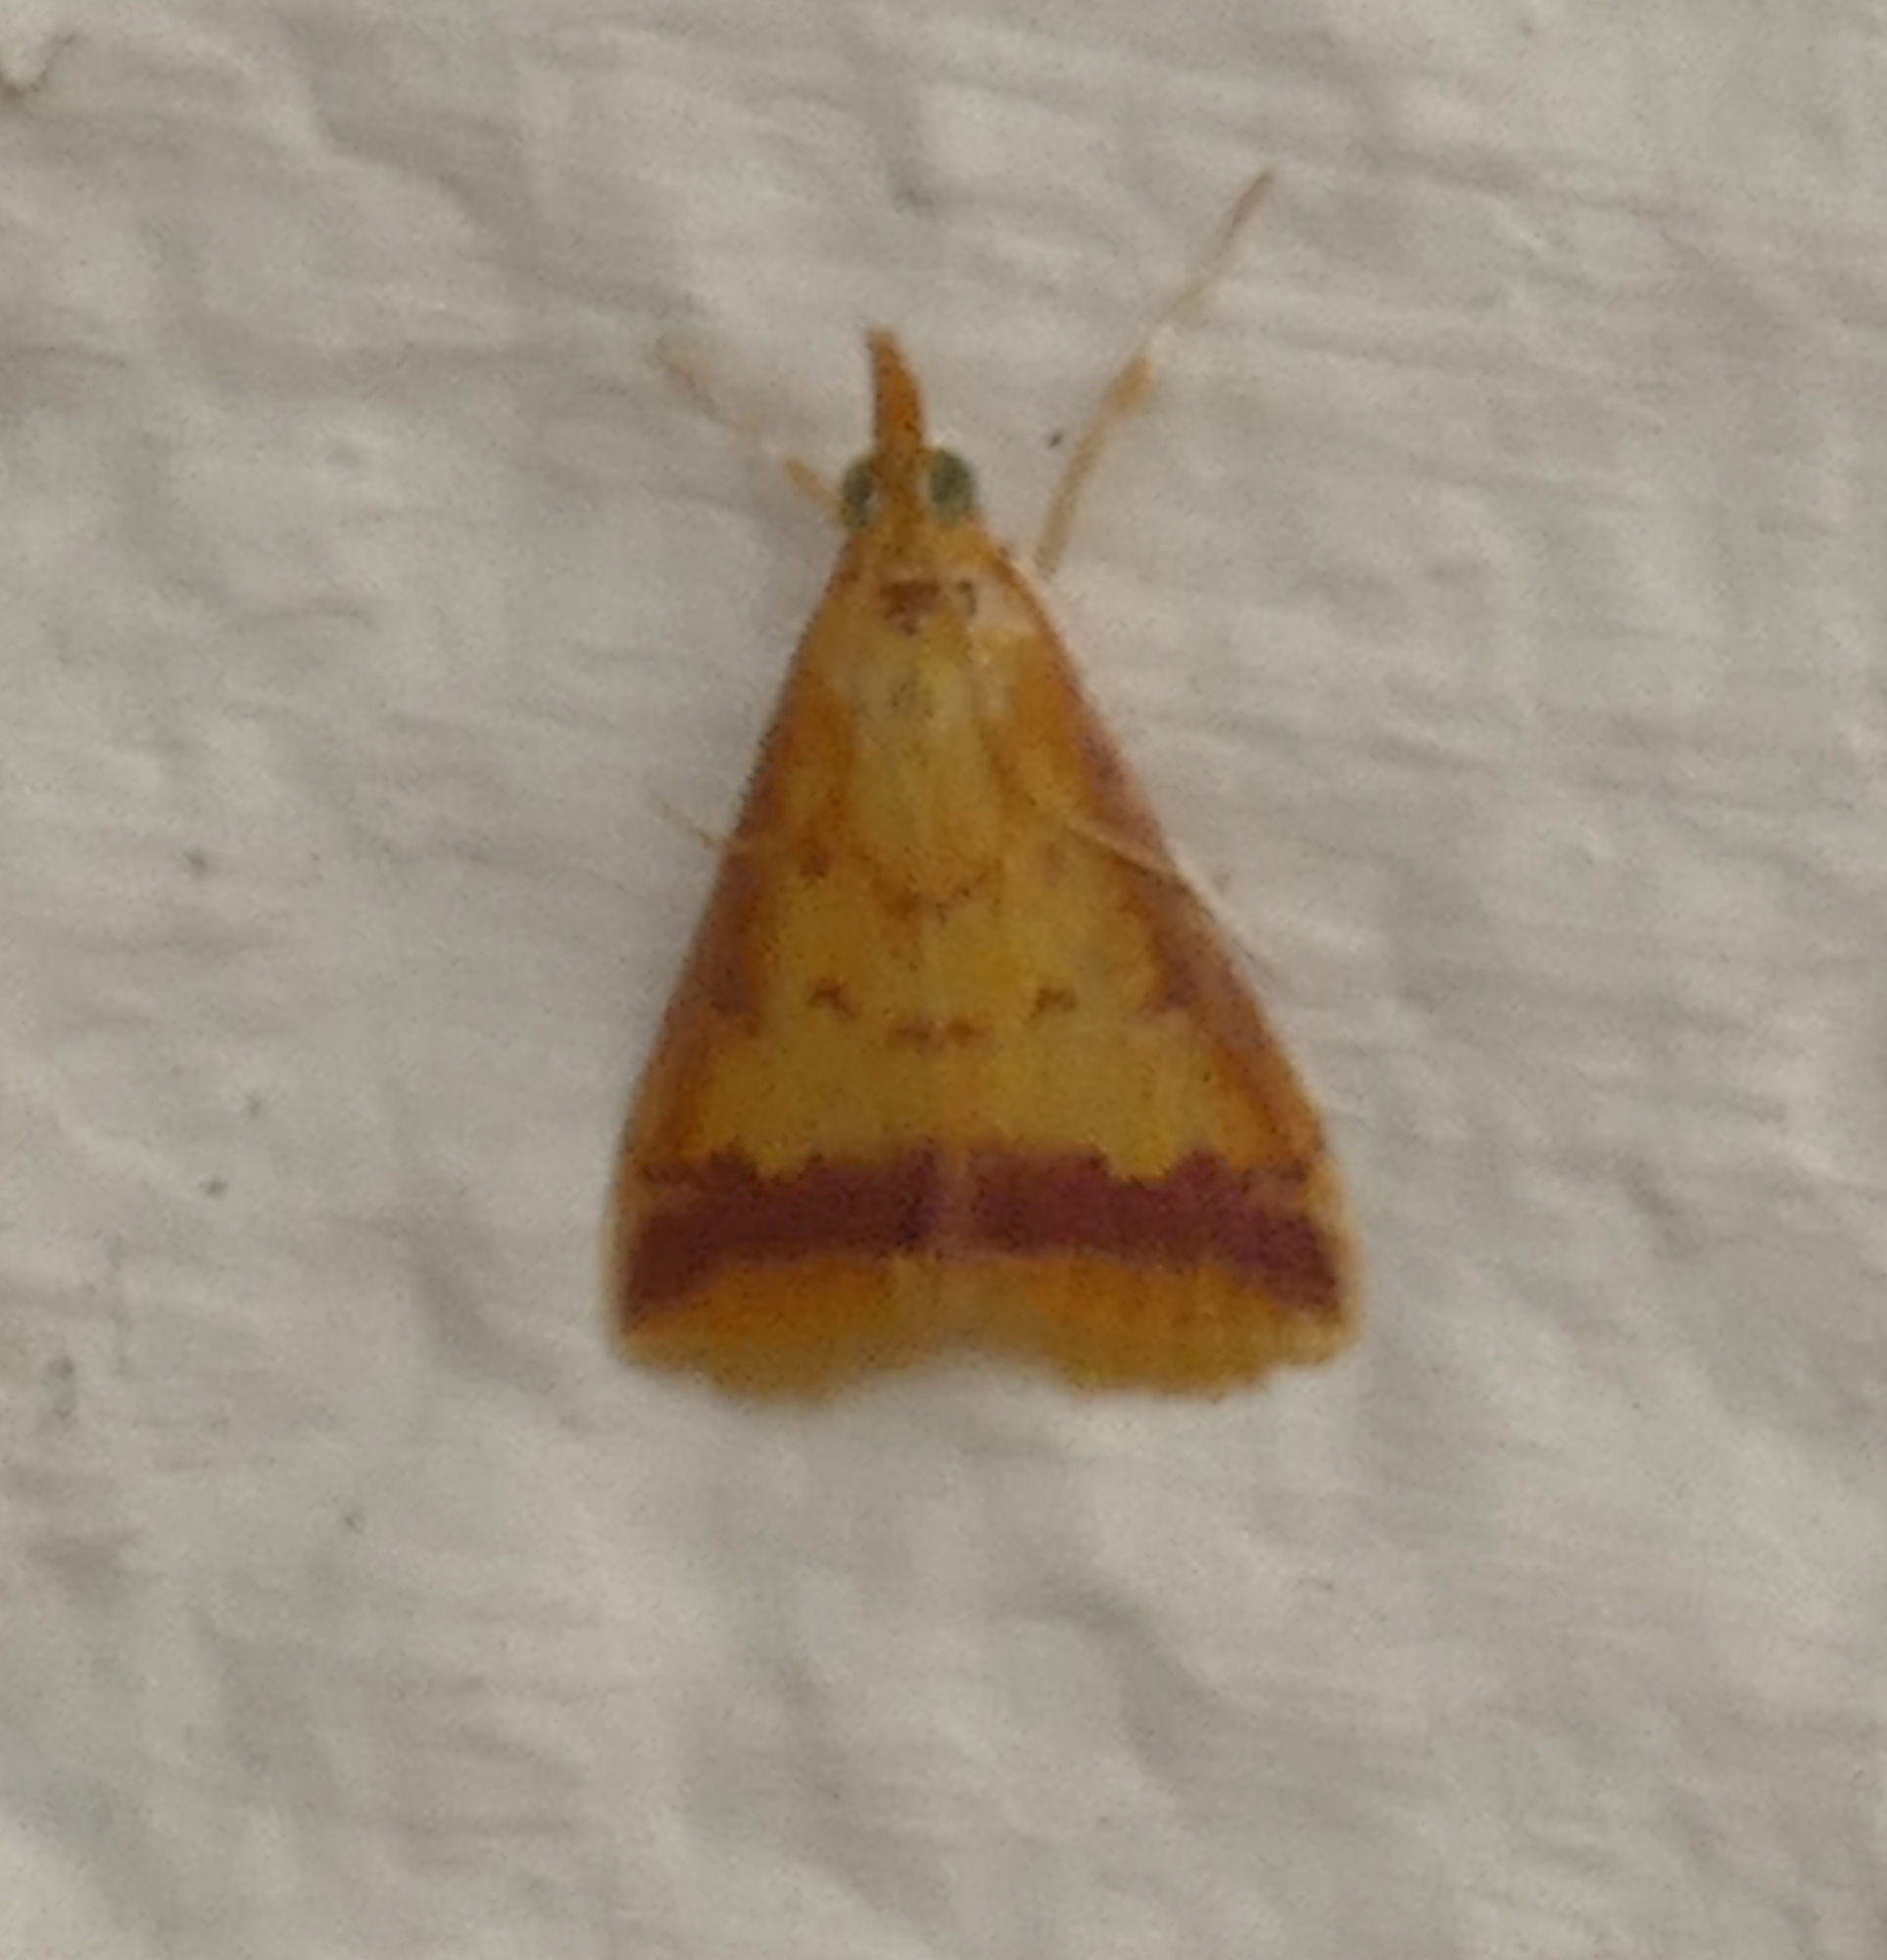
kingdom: Animalia
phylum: Arthropoda
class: Insecta
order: Lepidoptera
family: Crambidae
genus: Hyalorista
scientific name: Hyalorista taeniolalis
